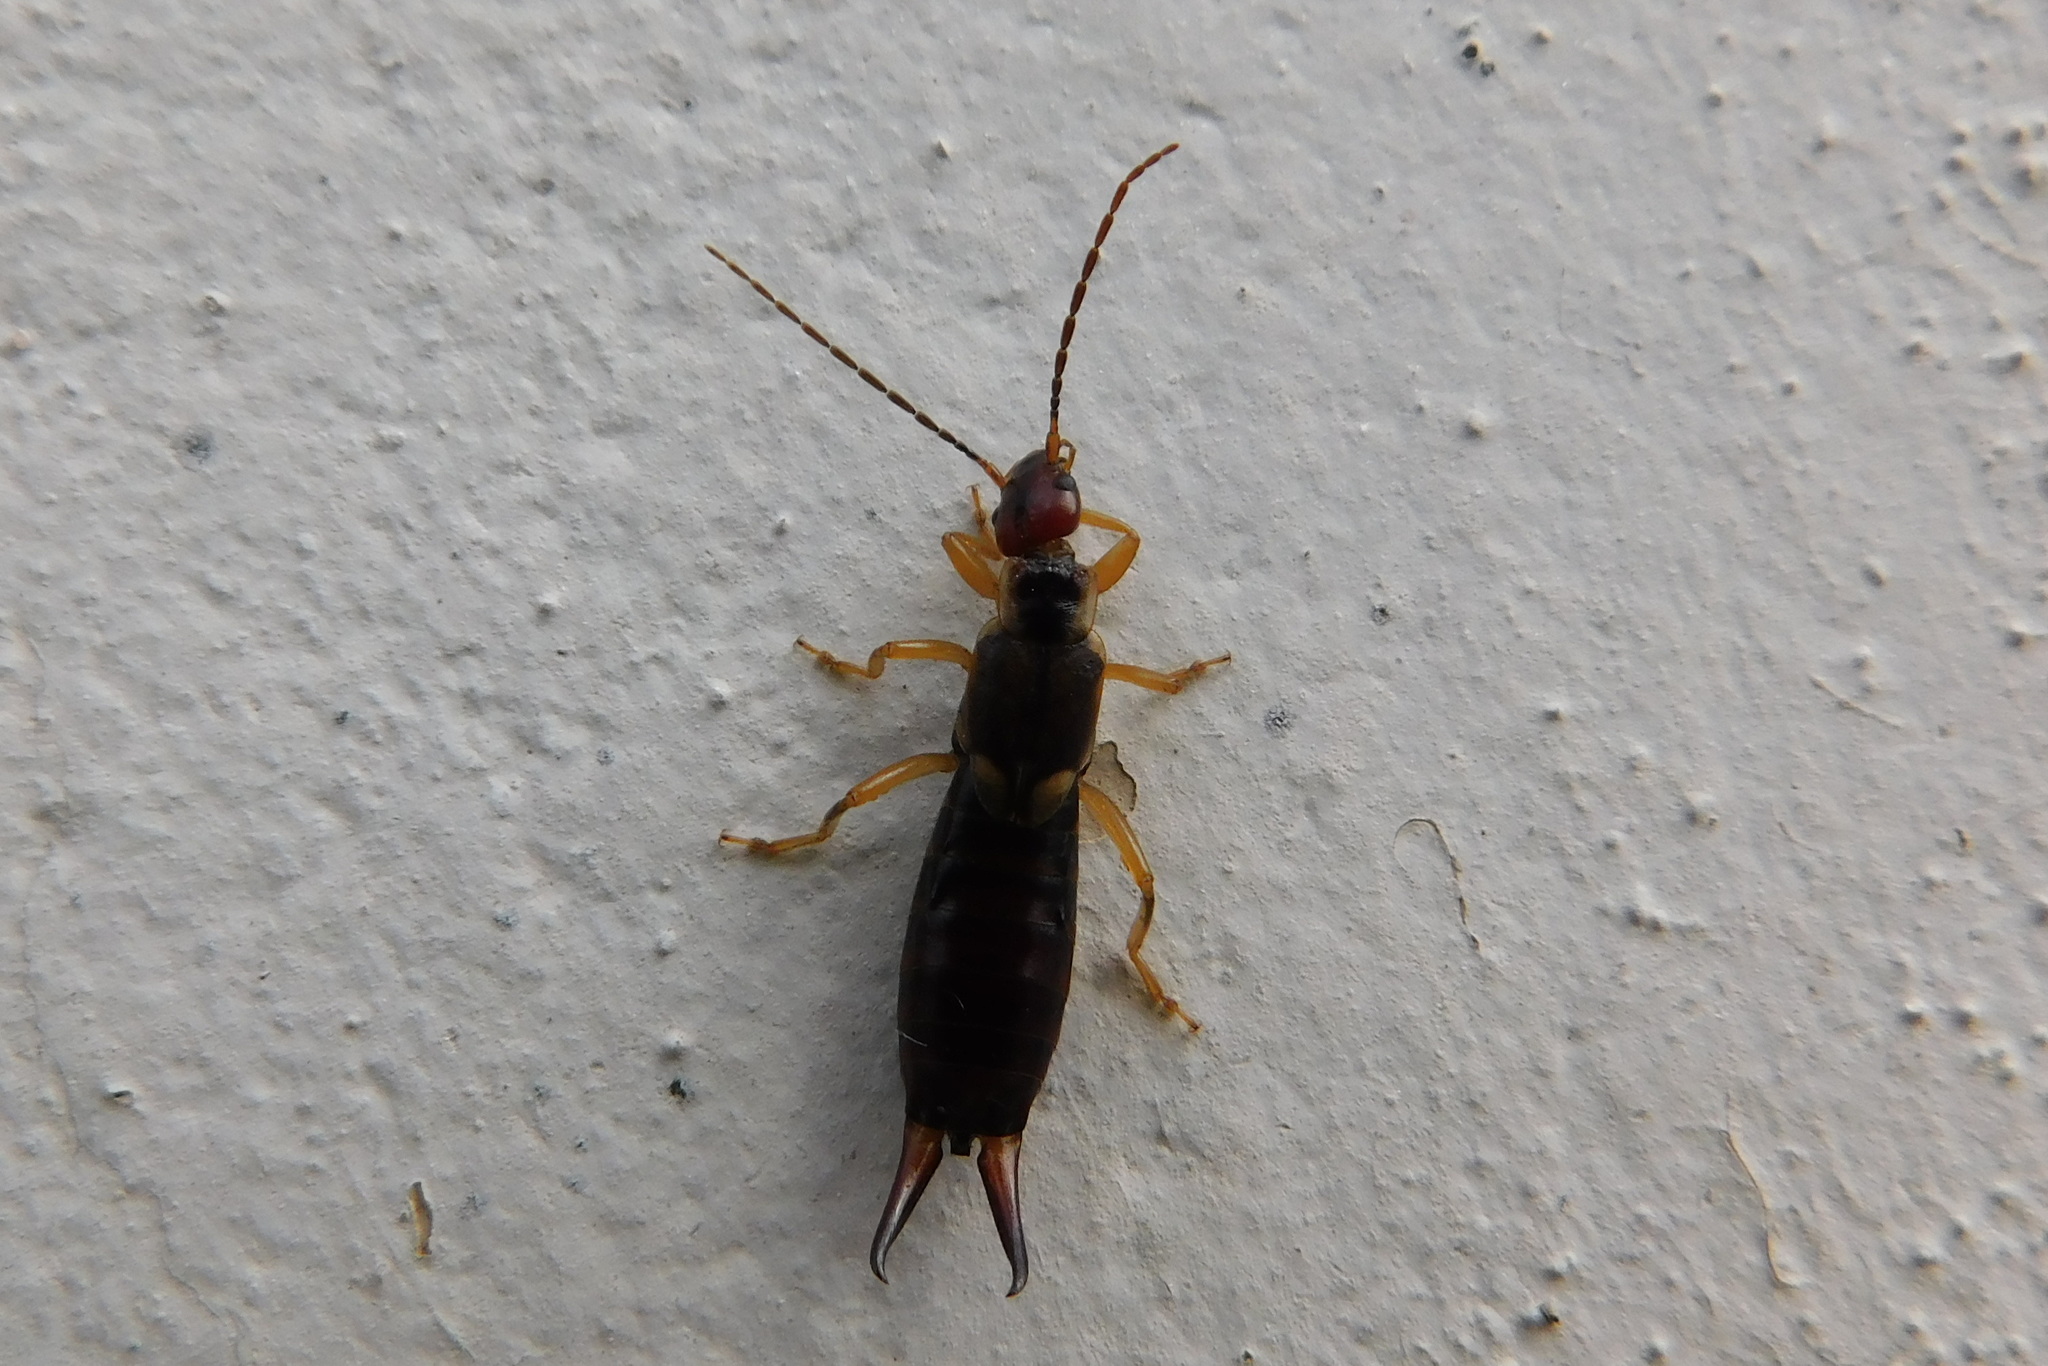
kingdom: Animalia
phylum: Arthropoda
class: Insecta
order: Dermaptera
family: Forficulidae
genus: Forficula
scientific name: Forficula
